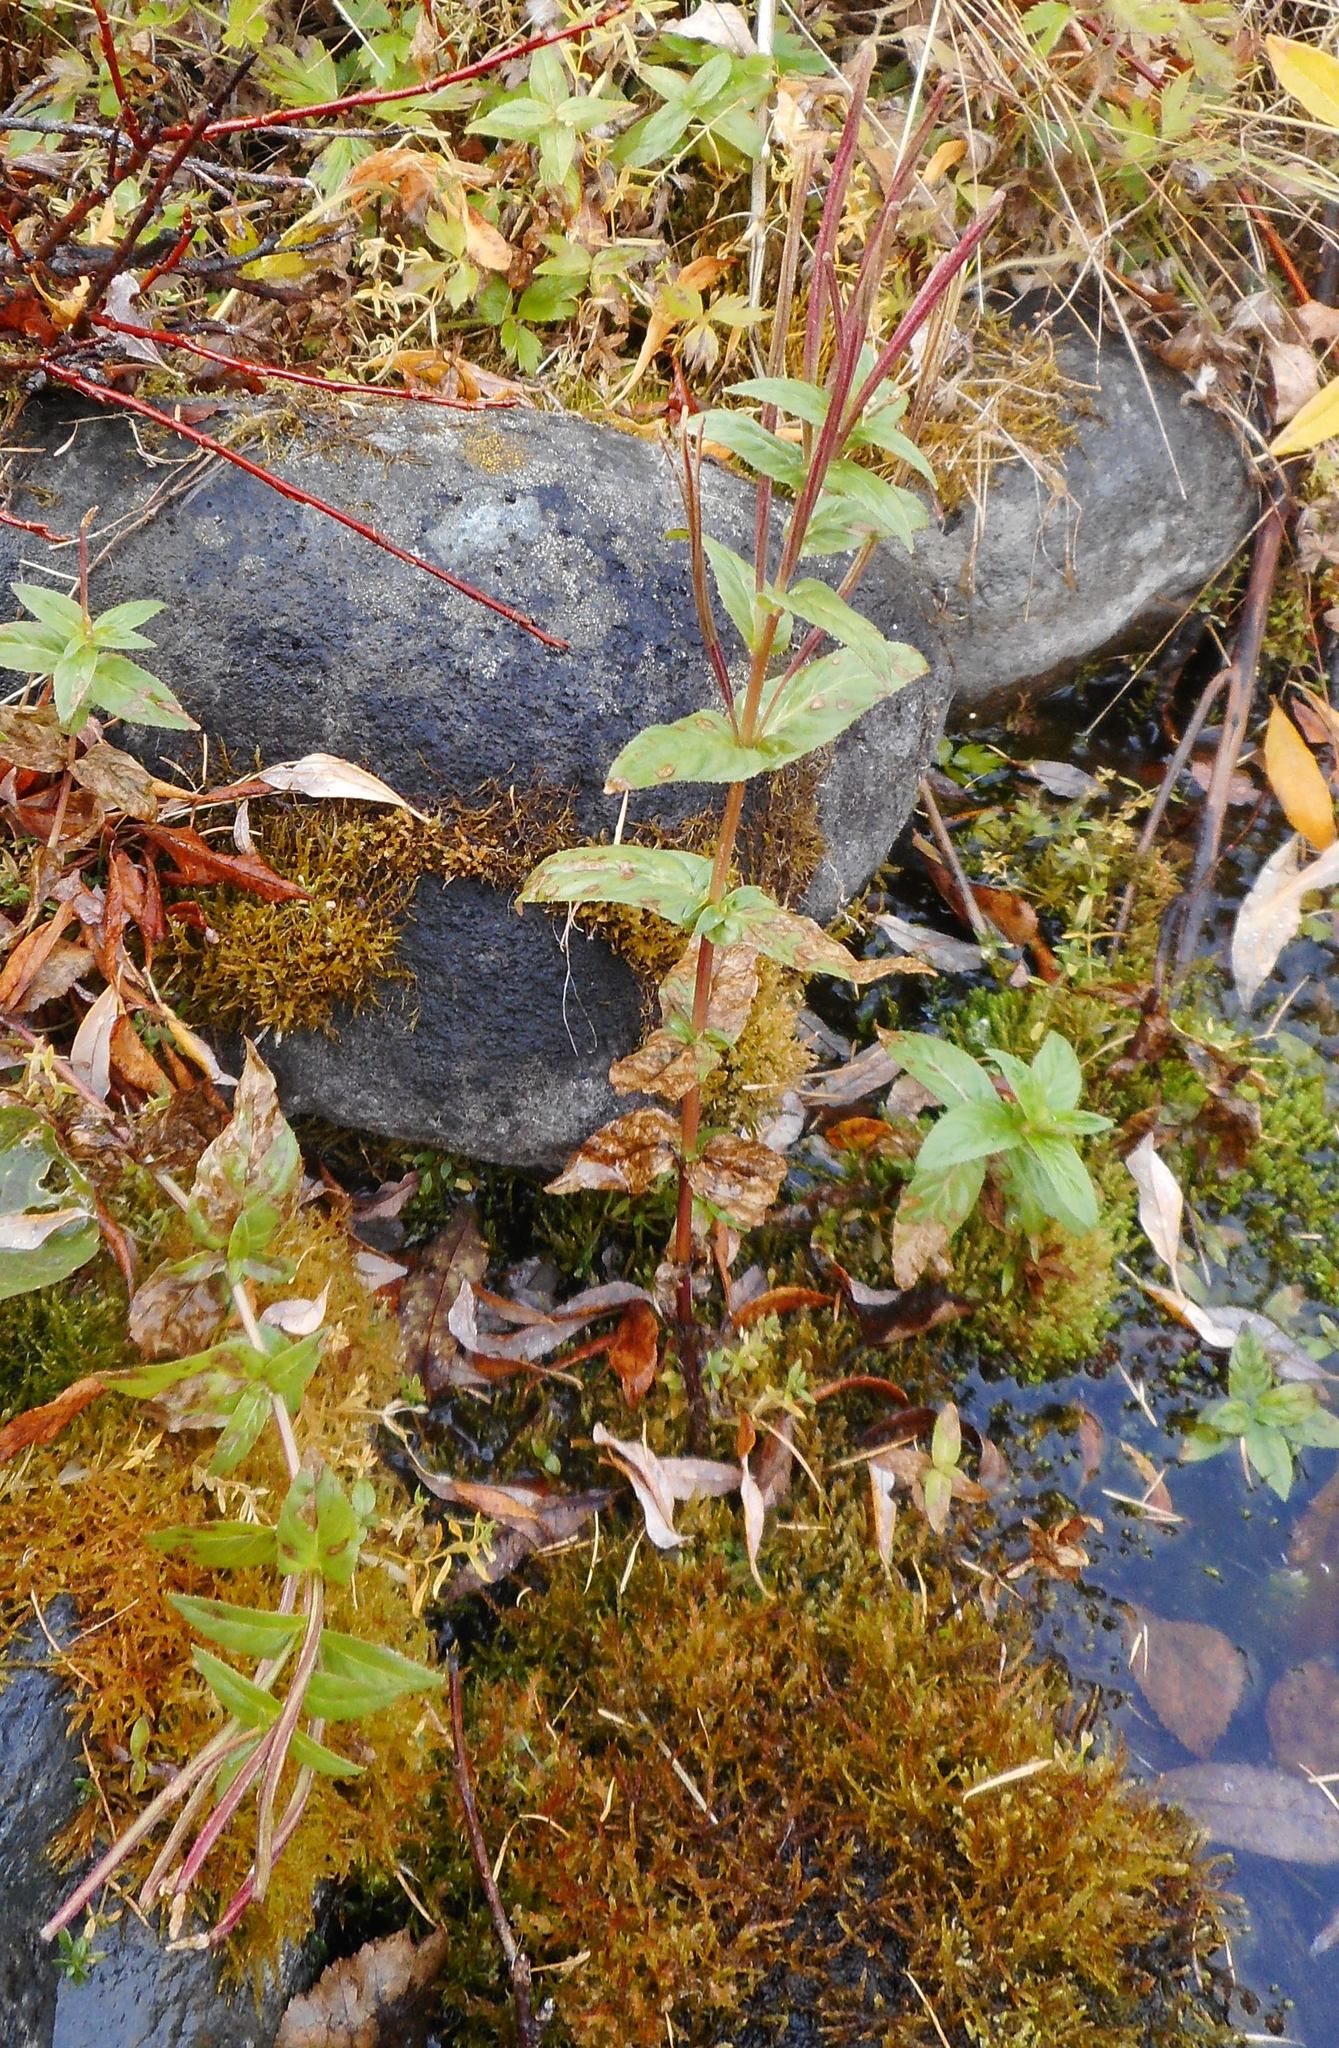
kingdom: Plantae
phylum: Tracheophyta
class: Magnoliopsida
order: Myrtales
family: Onagraceae
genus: Epilobium
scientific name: Epilobium ciliatum
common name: American willowherb
